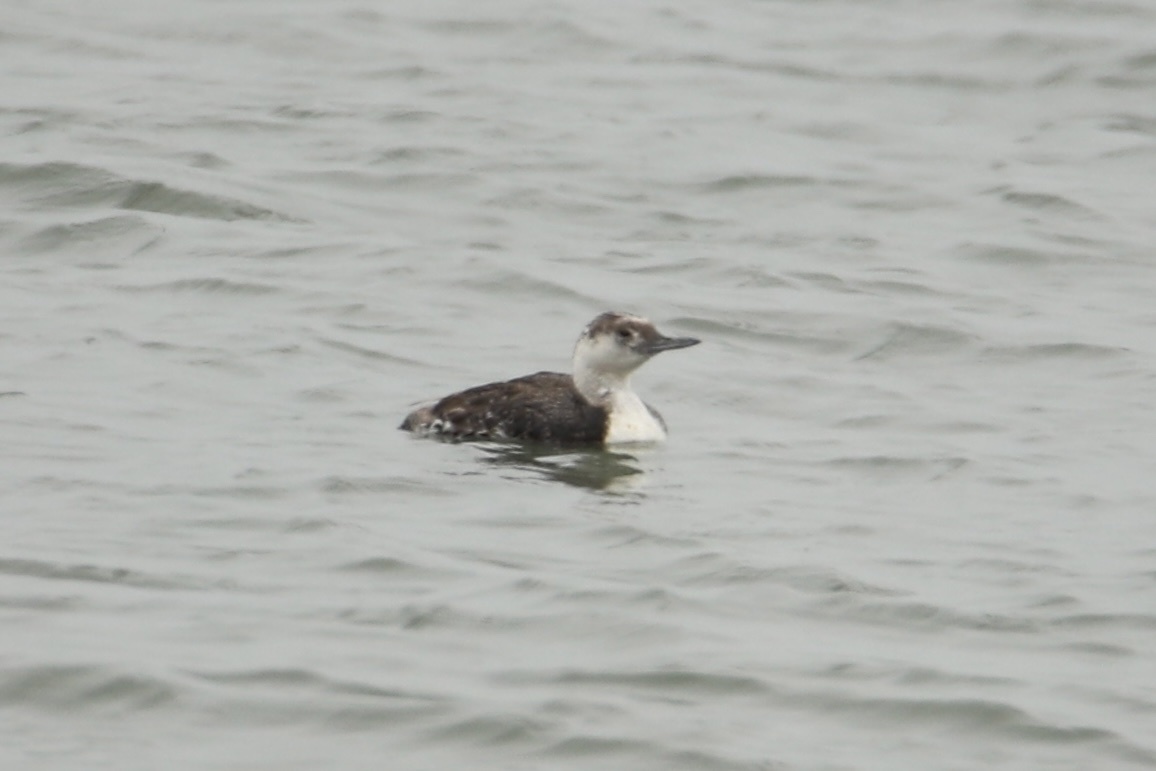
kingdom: Animalia
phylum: Chordata
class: Aves
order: Gaviiformes
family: Gaviidae
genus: Gavia
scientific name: Gavia stellata
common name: Red-throated loon
